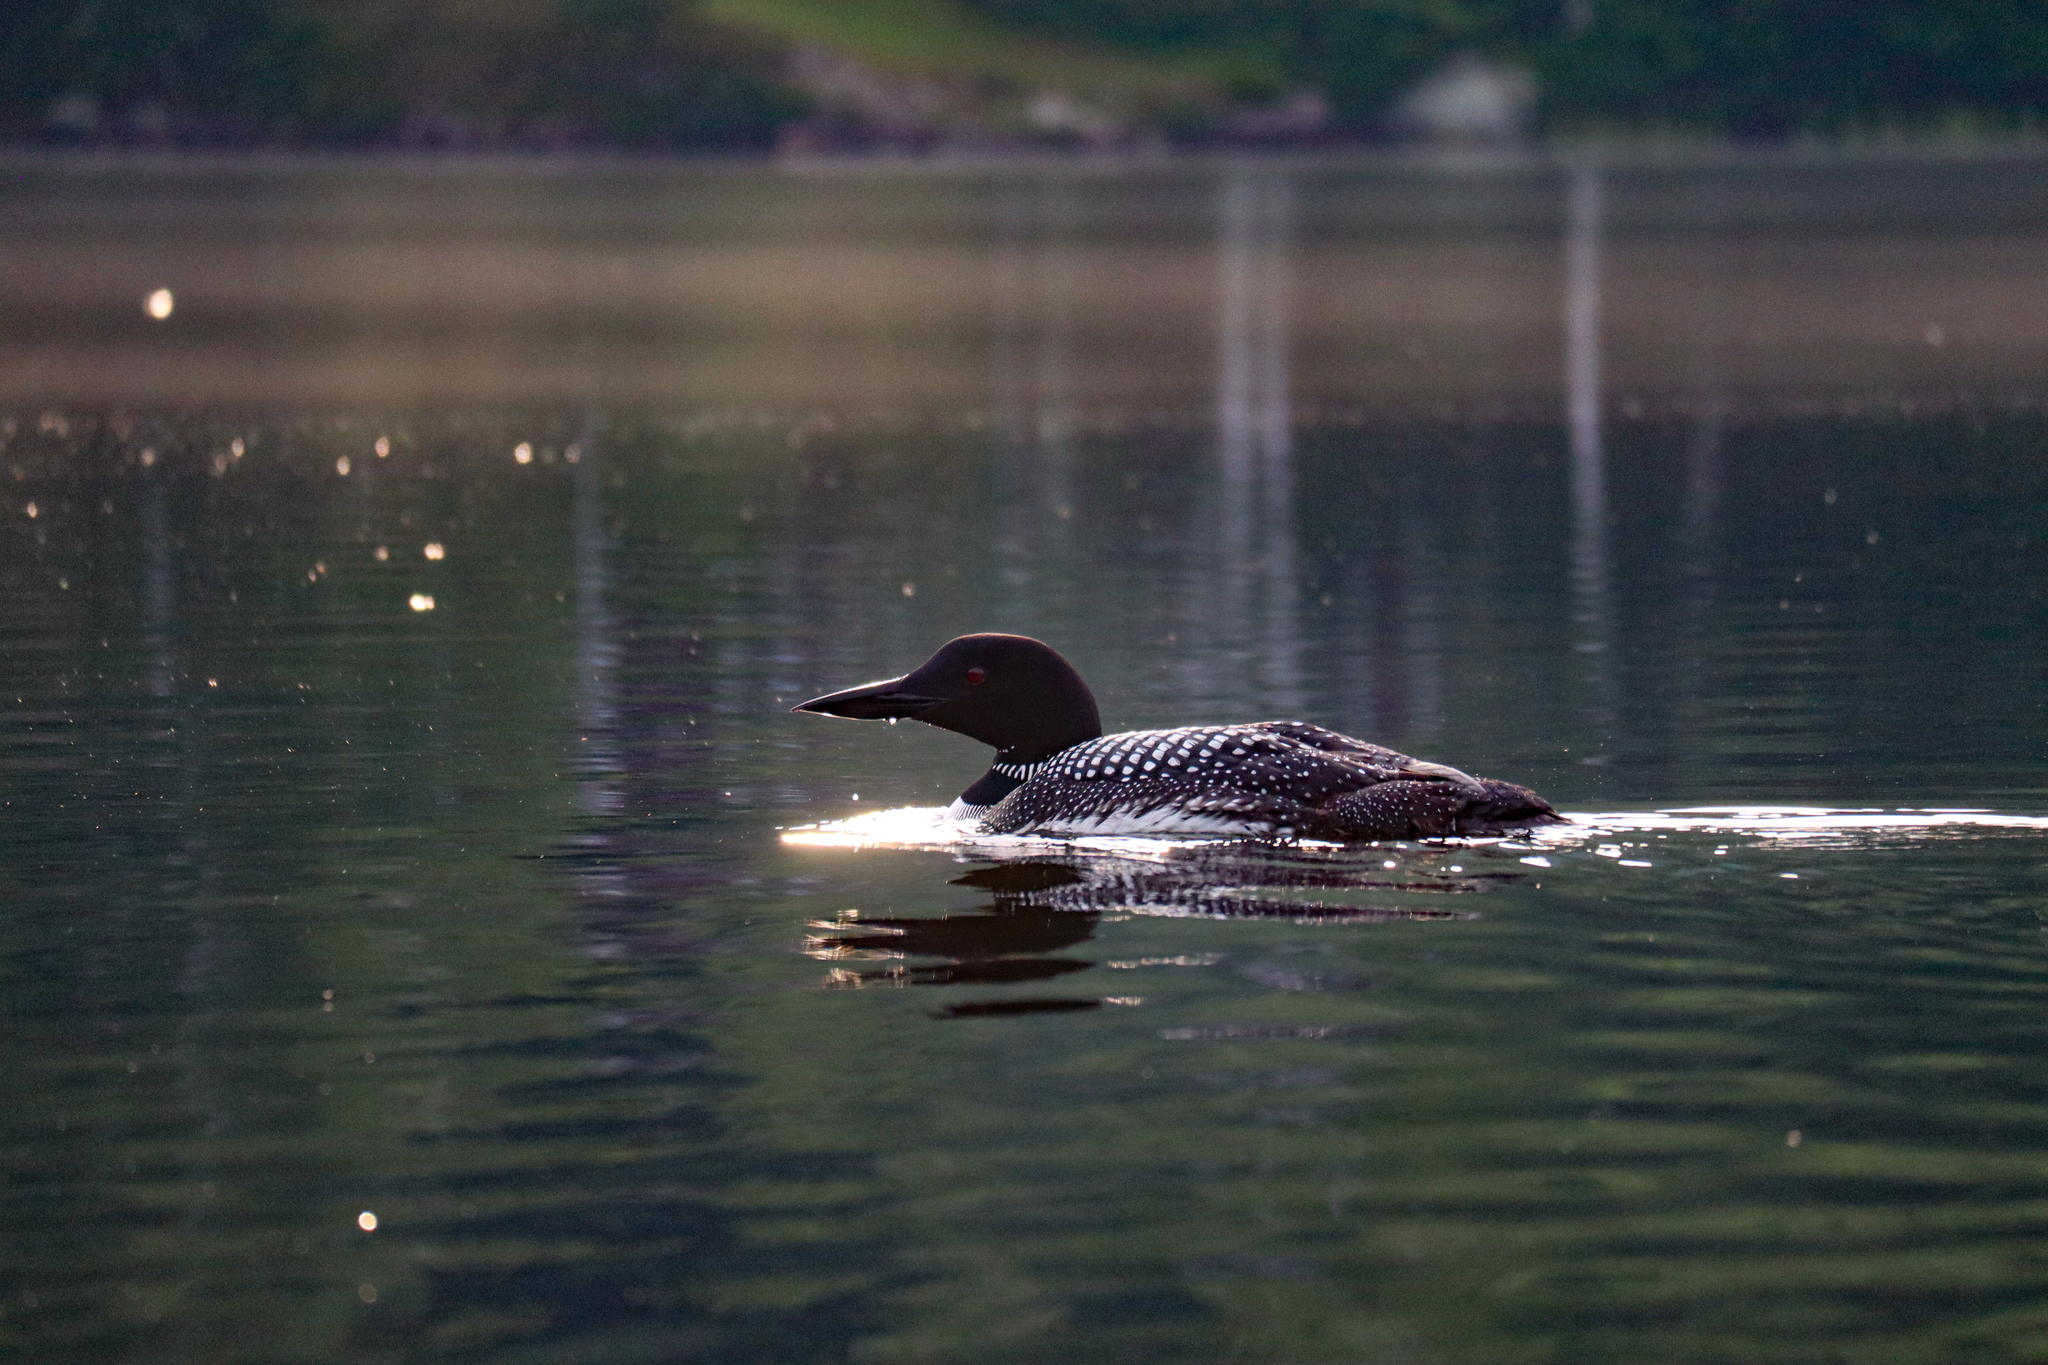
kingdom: Animalia
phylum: Chordata
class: Aves
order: Gaviiformes
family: Gaviidae
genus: Gavia
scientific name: Gavia immer
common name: Common loon
